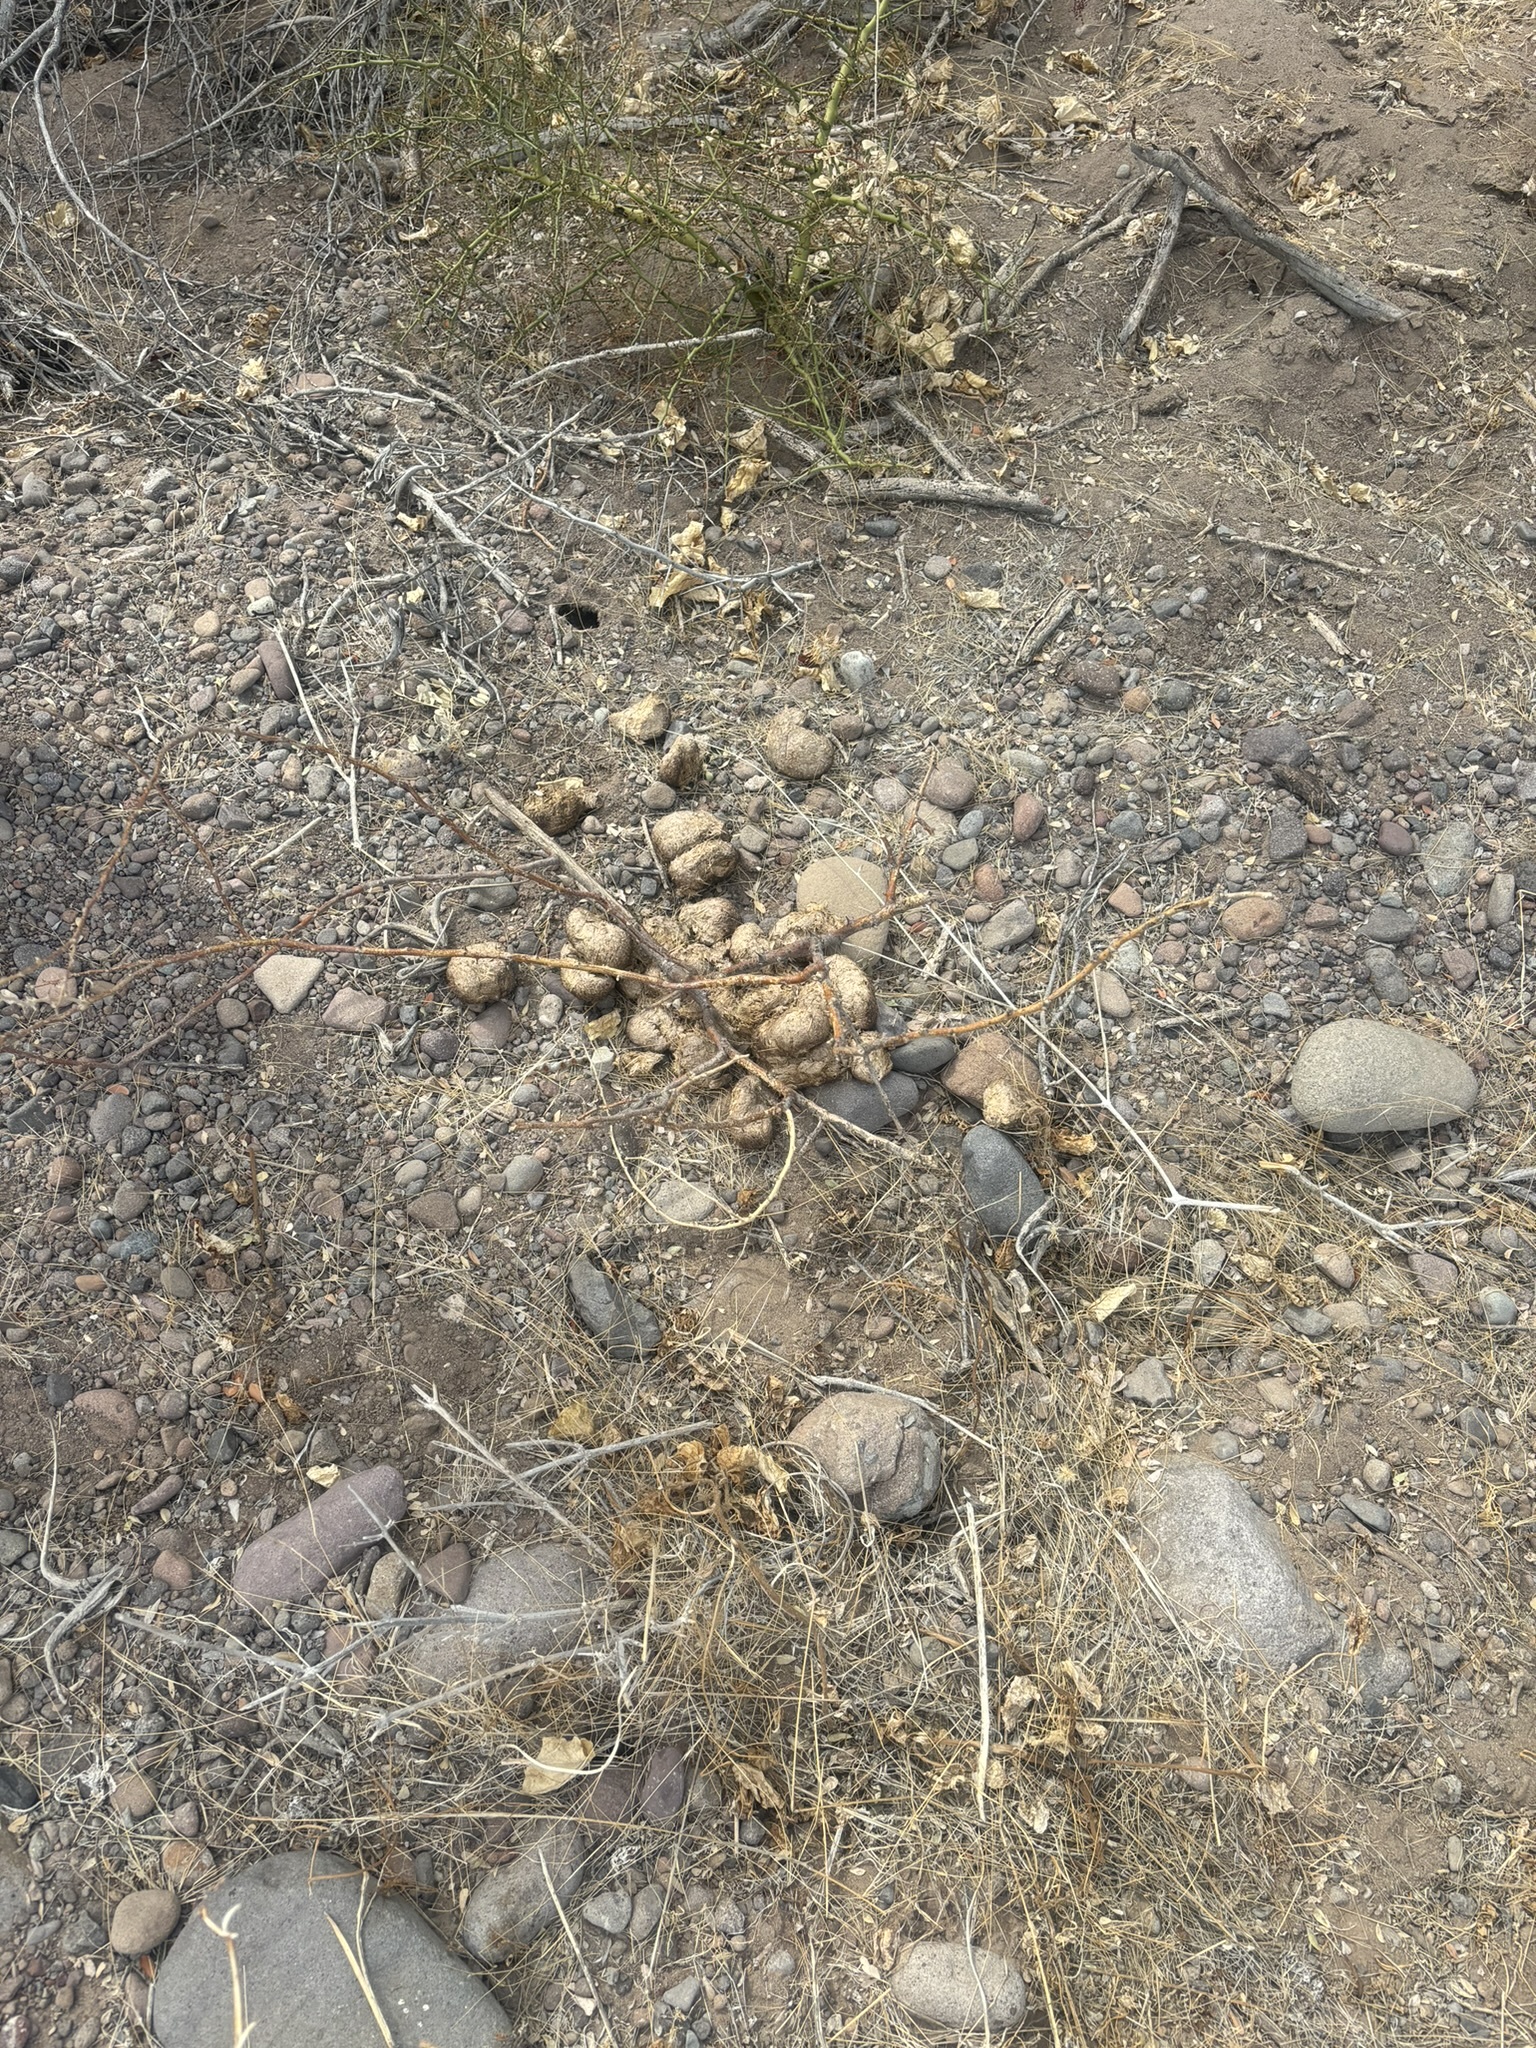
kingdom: Animalia
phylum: Chordata
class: Mammalia
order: Carnivora
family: Felidae
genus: Lynx
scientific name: Lynx rufus
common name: Bobcat
